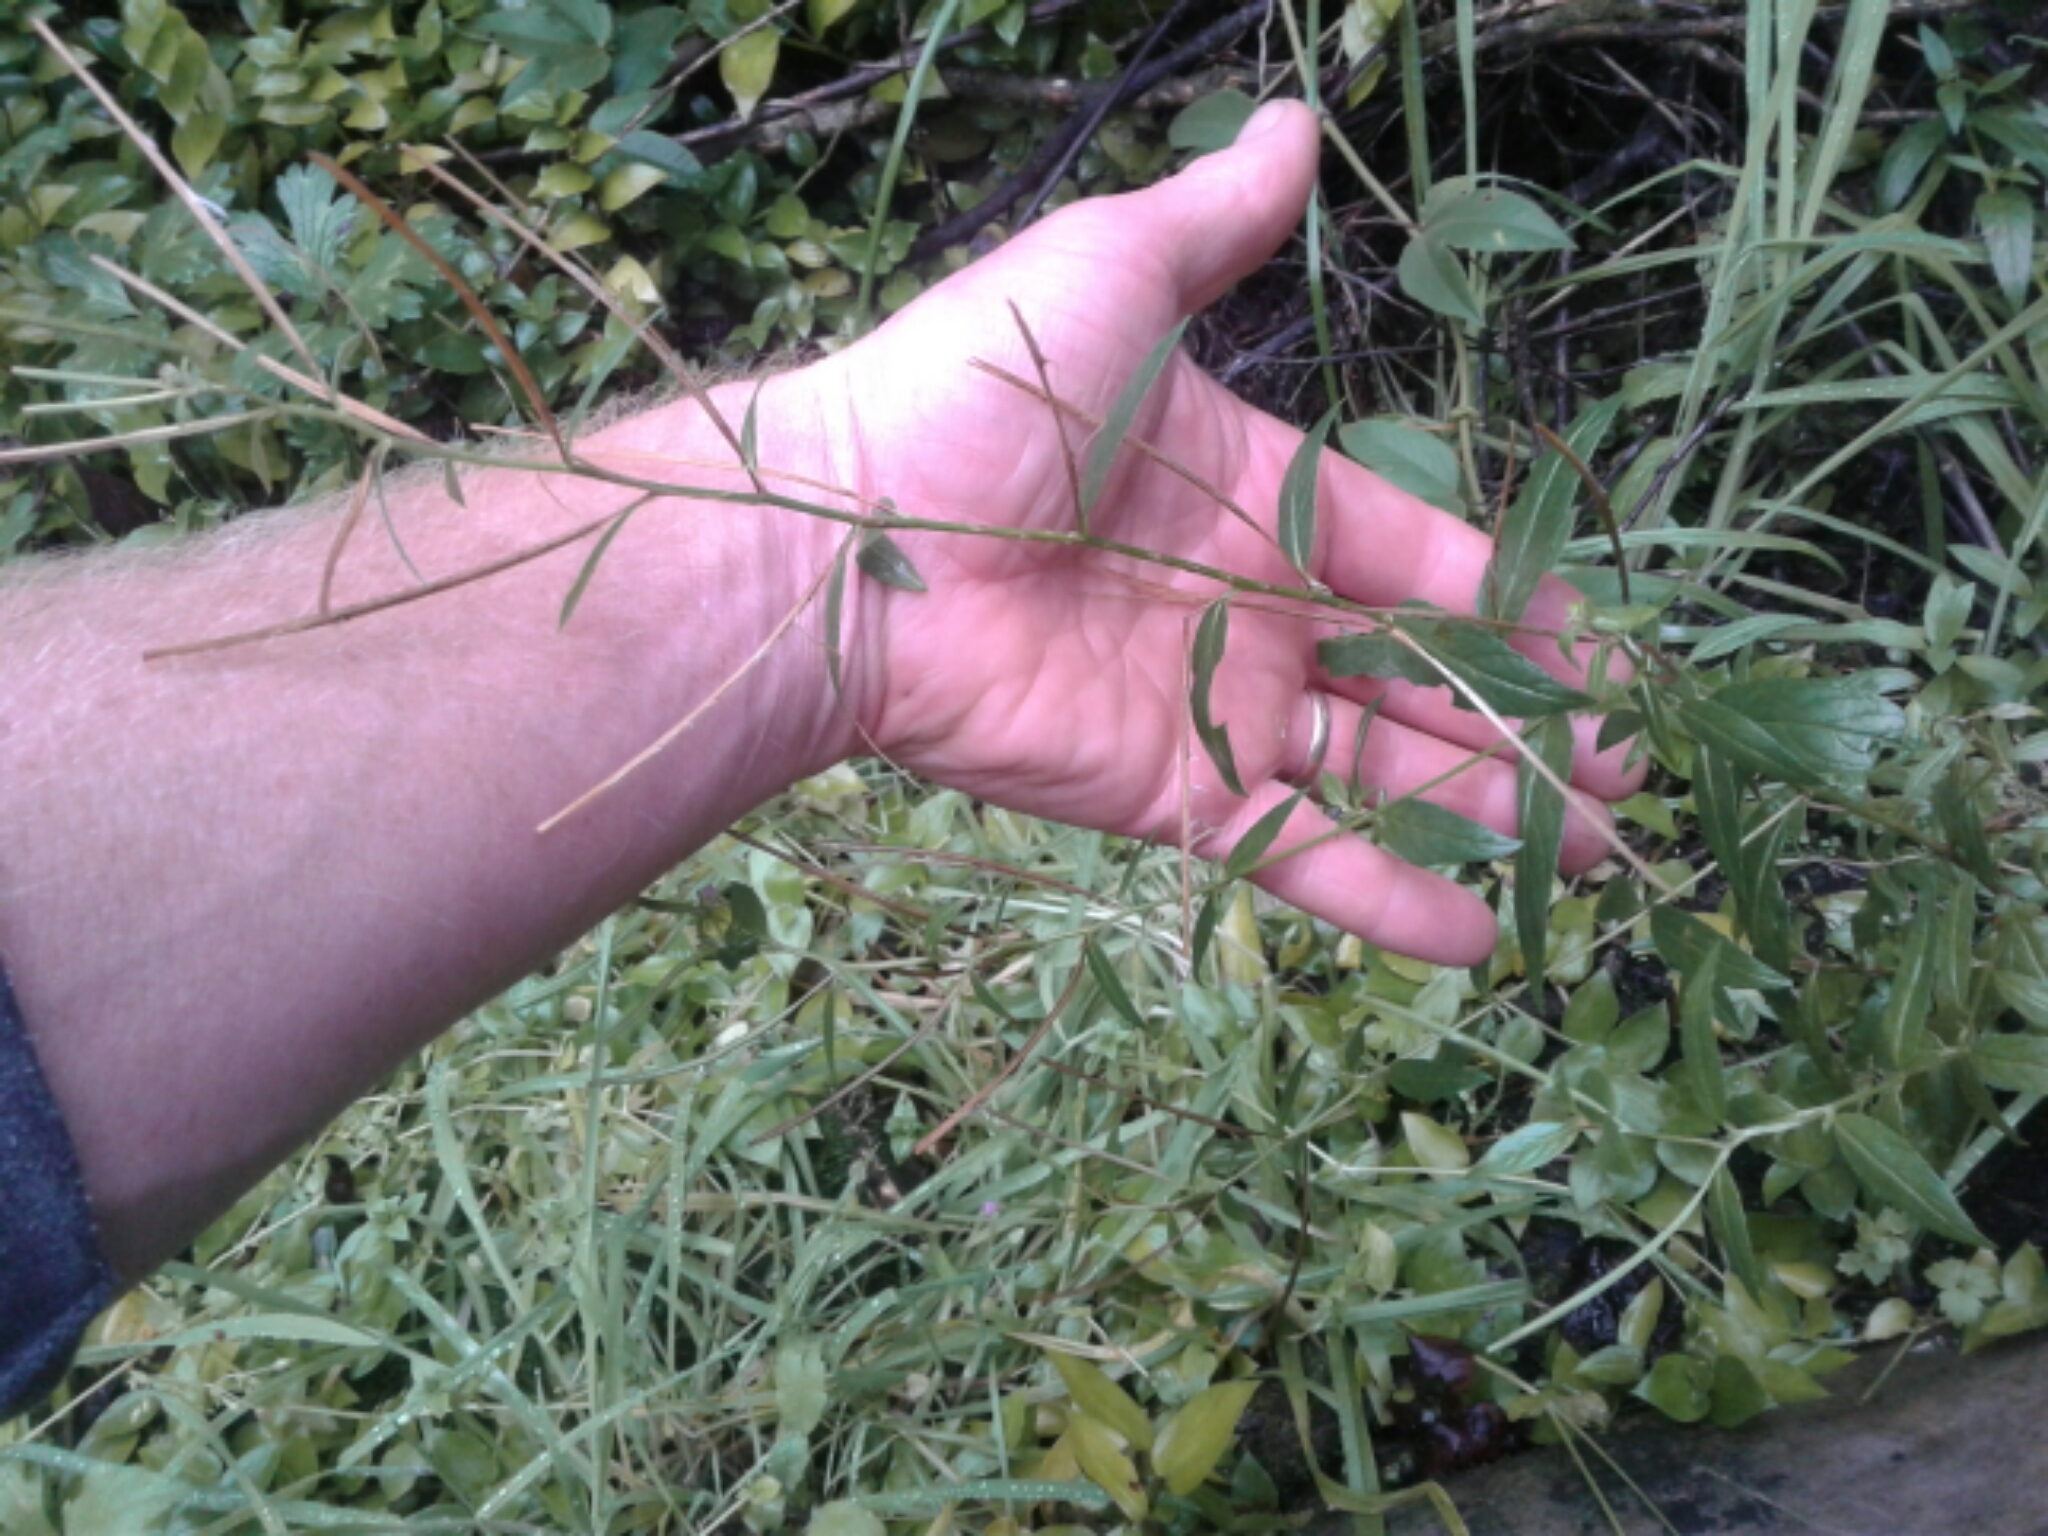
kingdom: Plantae
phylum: Tracheophyta
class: Magnoliopsida
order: Myrtales
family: Onagraceae
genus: Epilobium
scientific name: Epilobium ciliatum
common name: American willowherb
